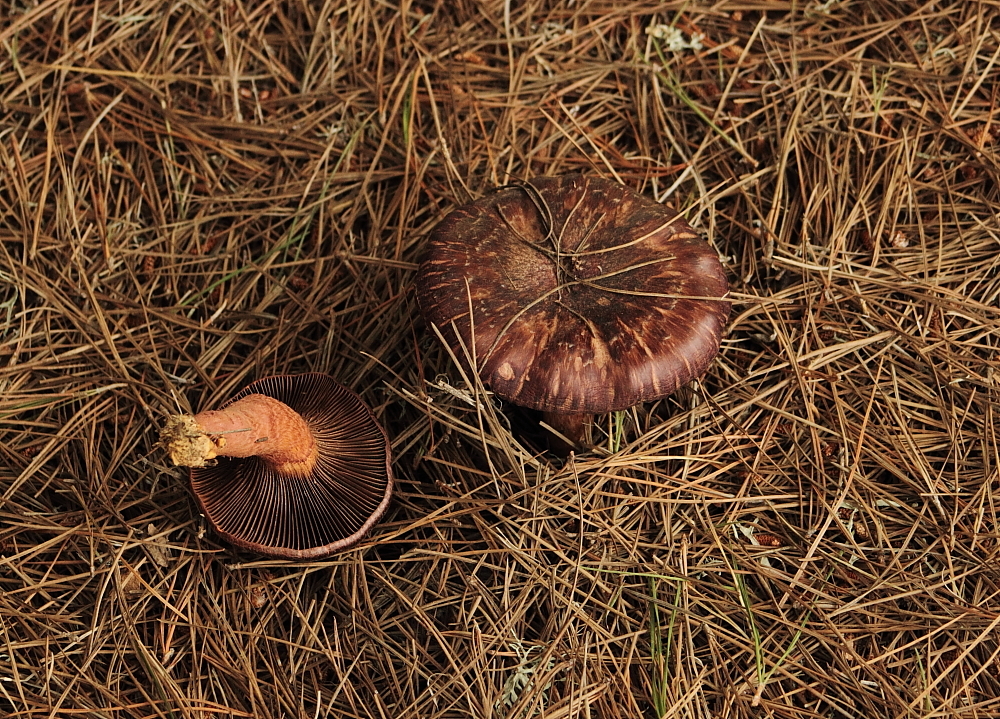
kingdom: Fungi
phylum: Basidiomycota
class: Agaricomycetes
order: Boletales
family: Gomphidiaceae
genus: Chroogomphus
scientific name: Chroogomphus vinicolor
